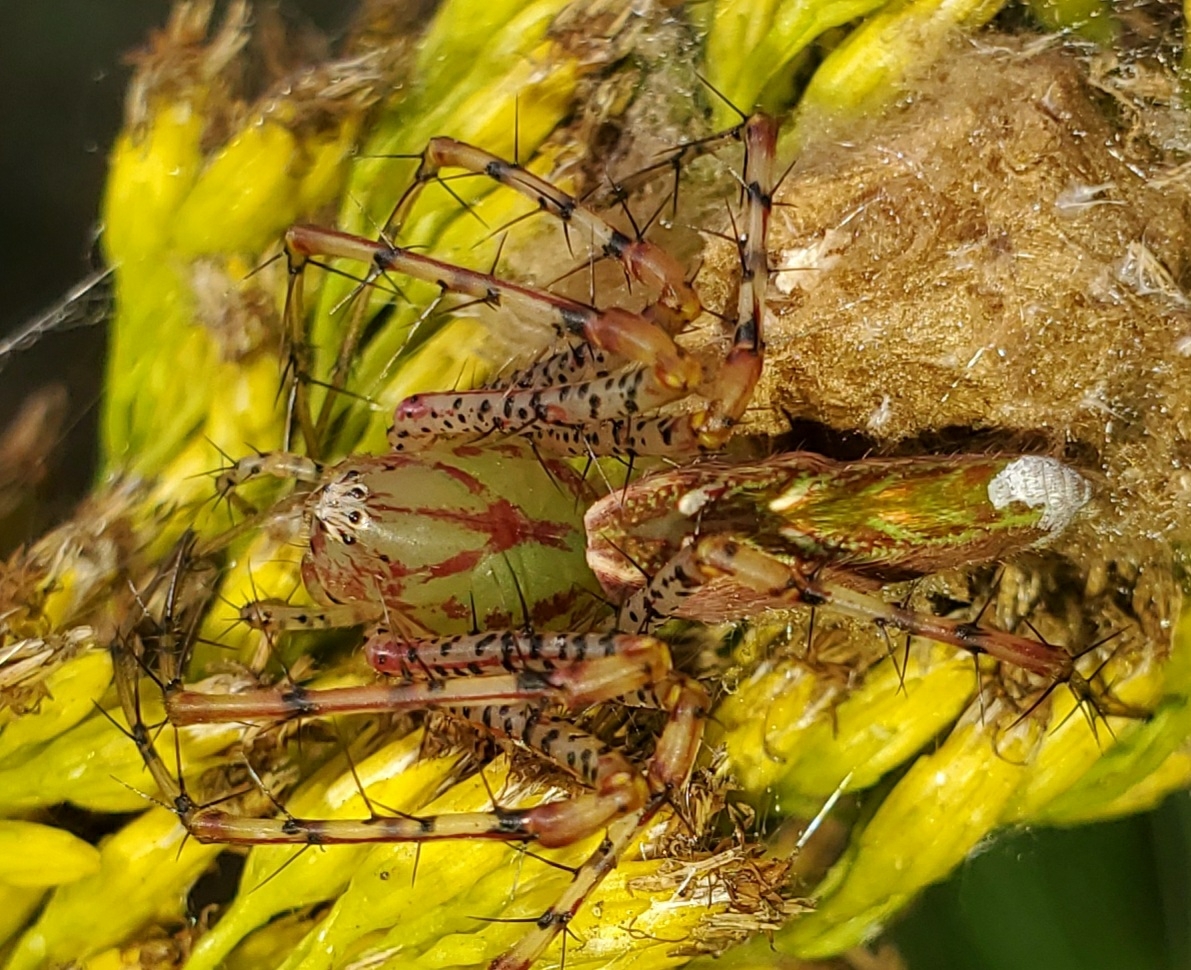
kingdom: Animalia
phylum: Arthropoda
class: Arachnida
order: Araneae
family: Oxyopidae
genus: Peucetia
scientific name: Peucetia viridans
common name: Lynx spiders
